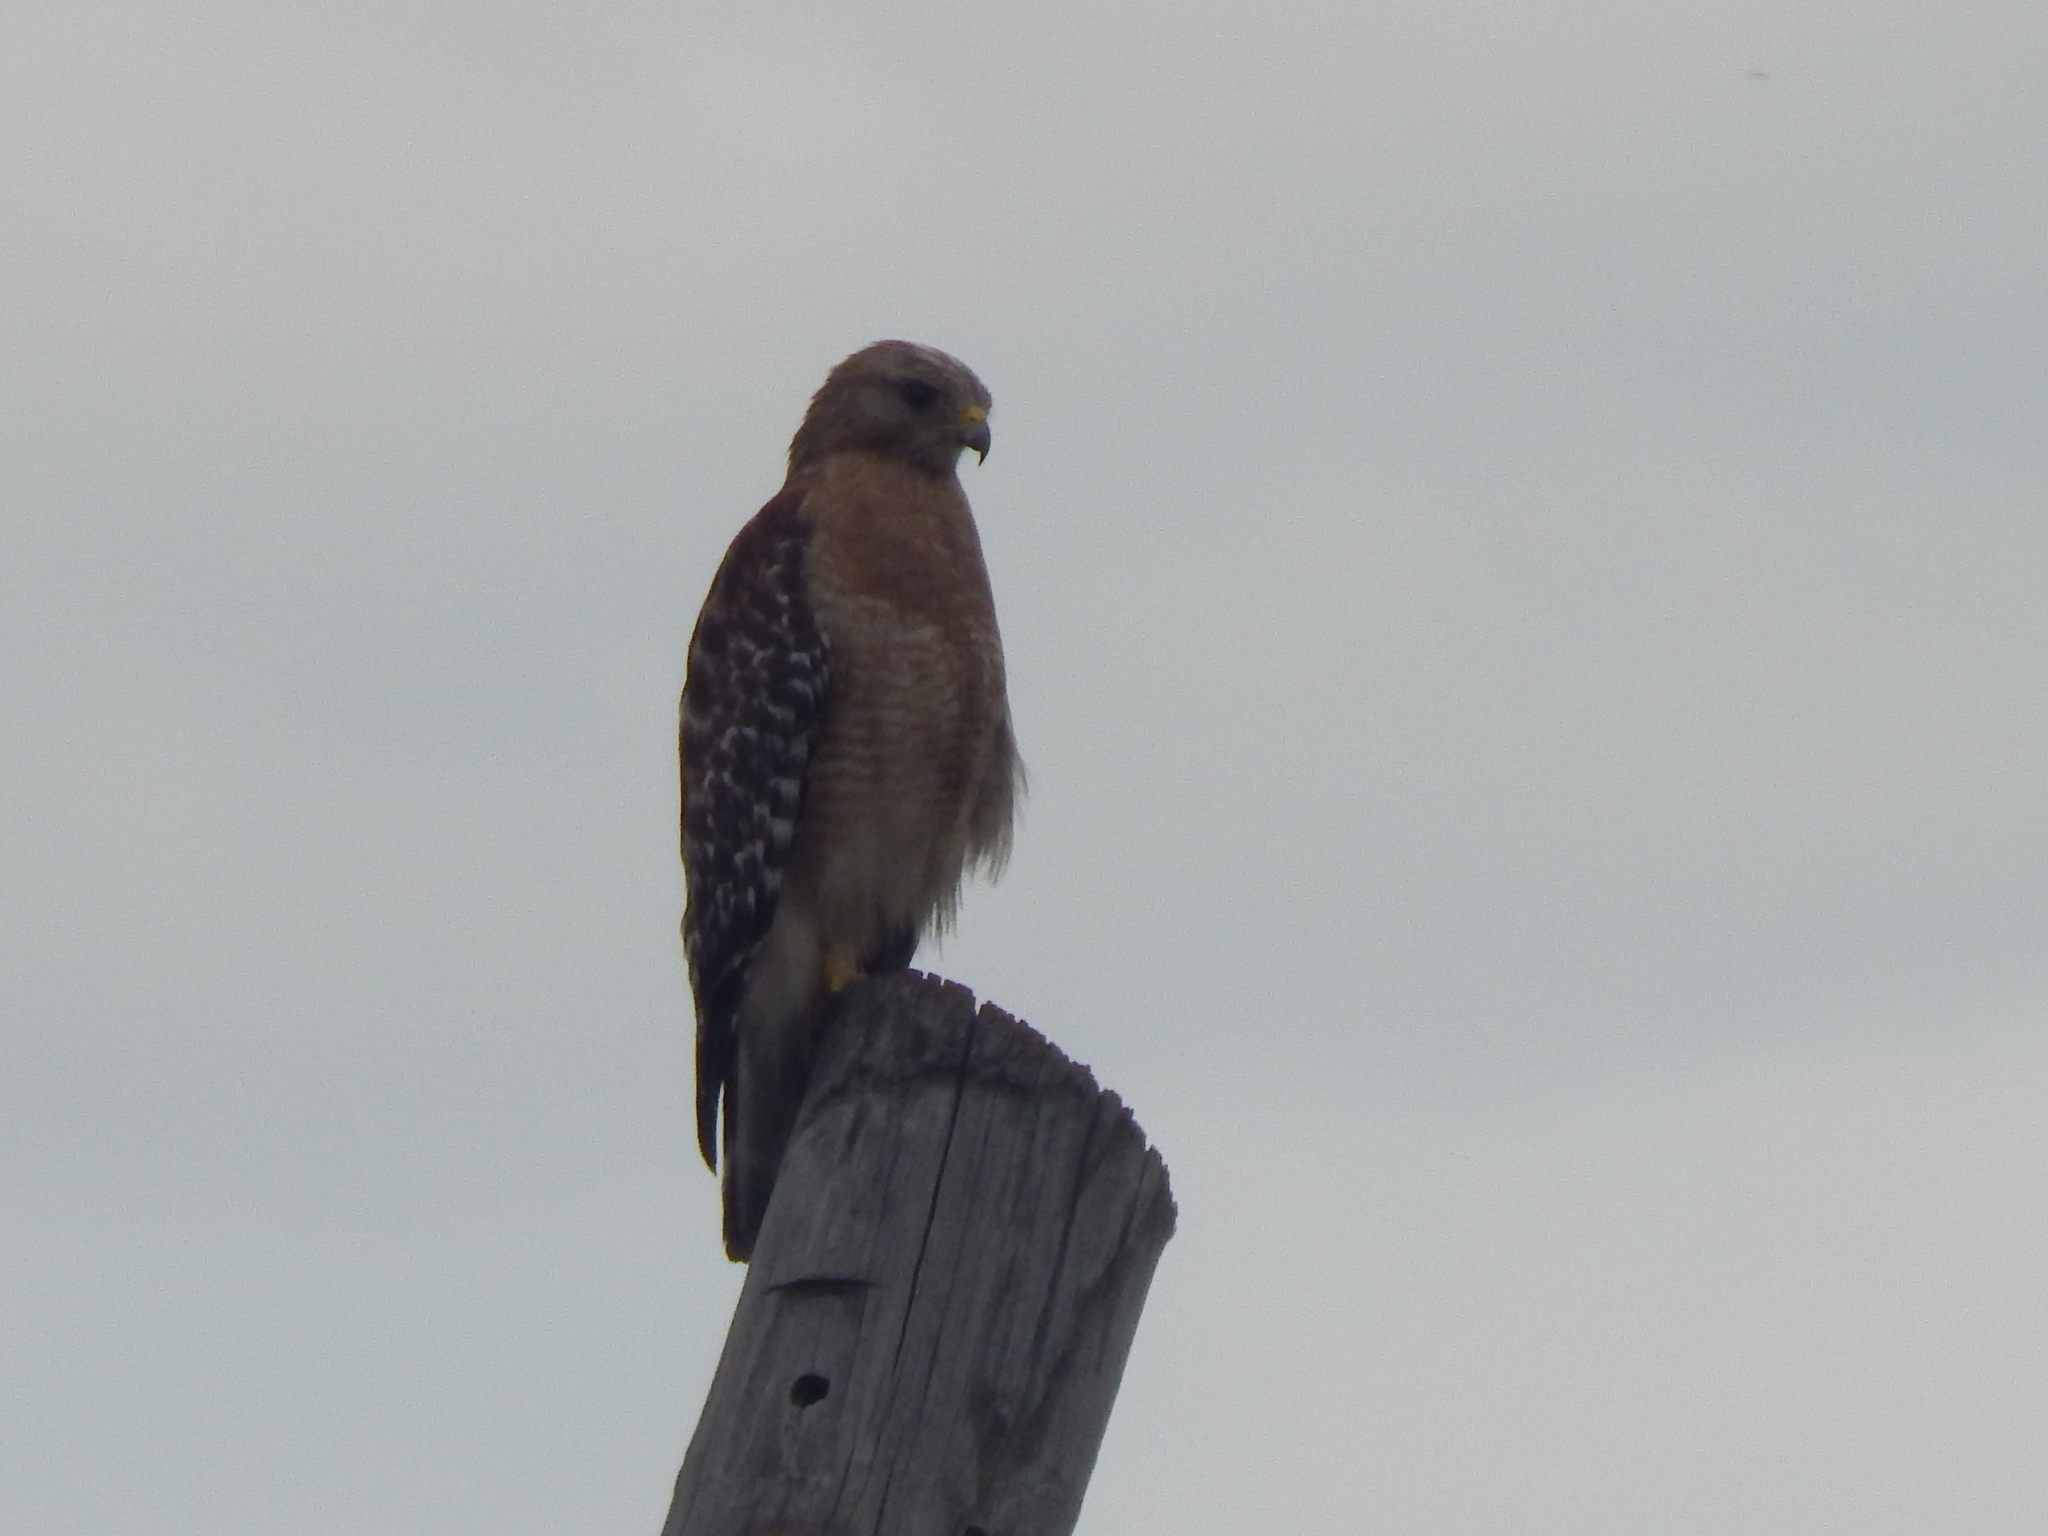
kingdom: Animalia
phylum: Chordata
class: Aves
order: Accipitriformes
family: Accipitridae
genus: Buteo
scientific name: Buteo lineatus
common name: Red-shouldered hawk
